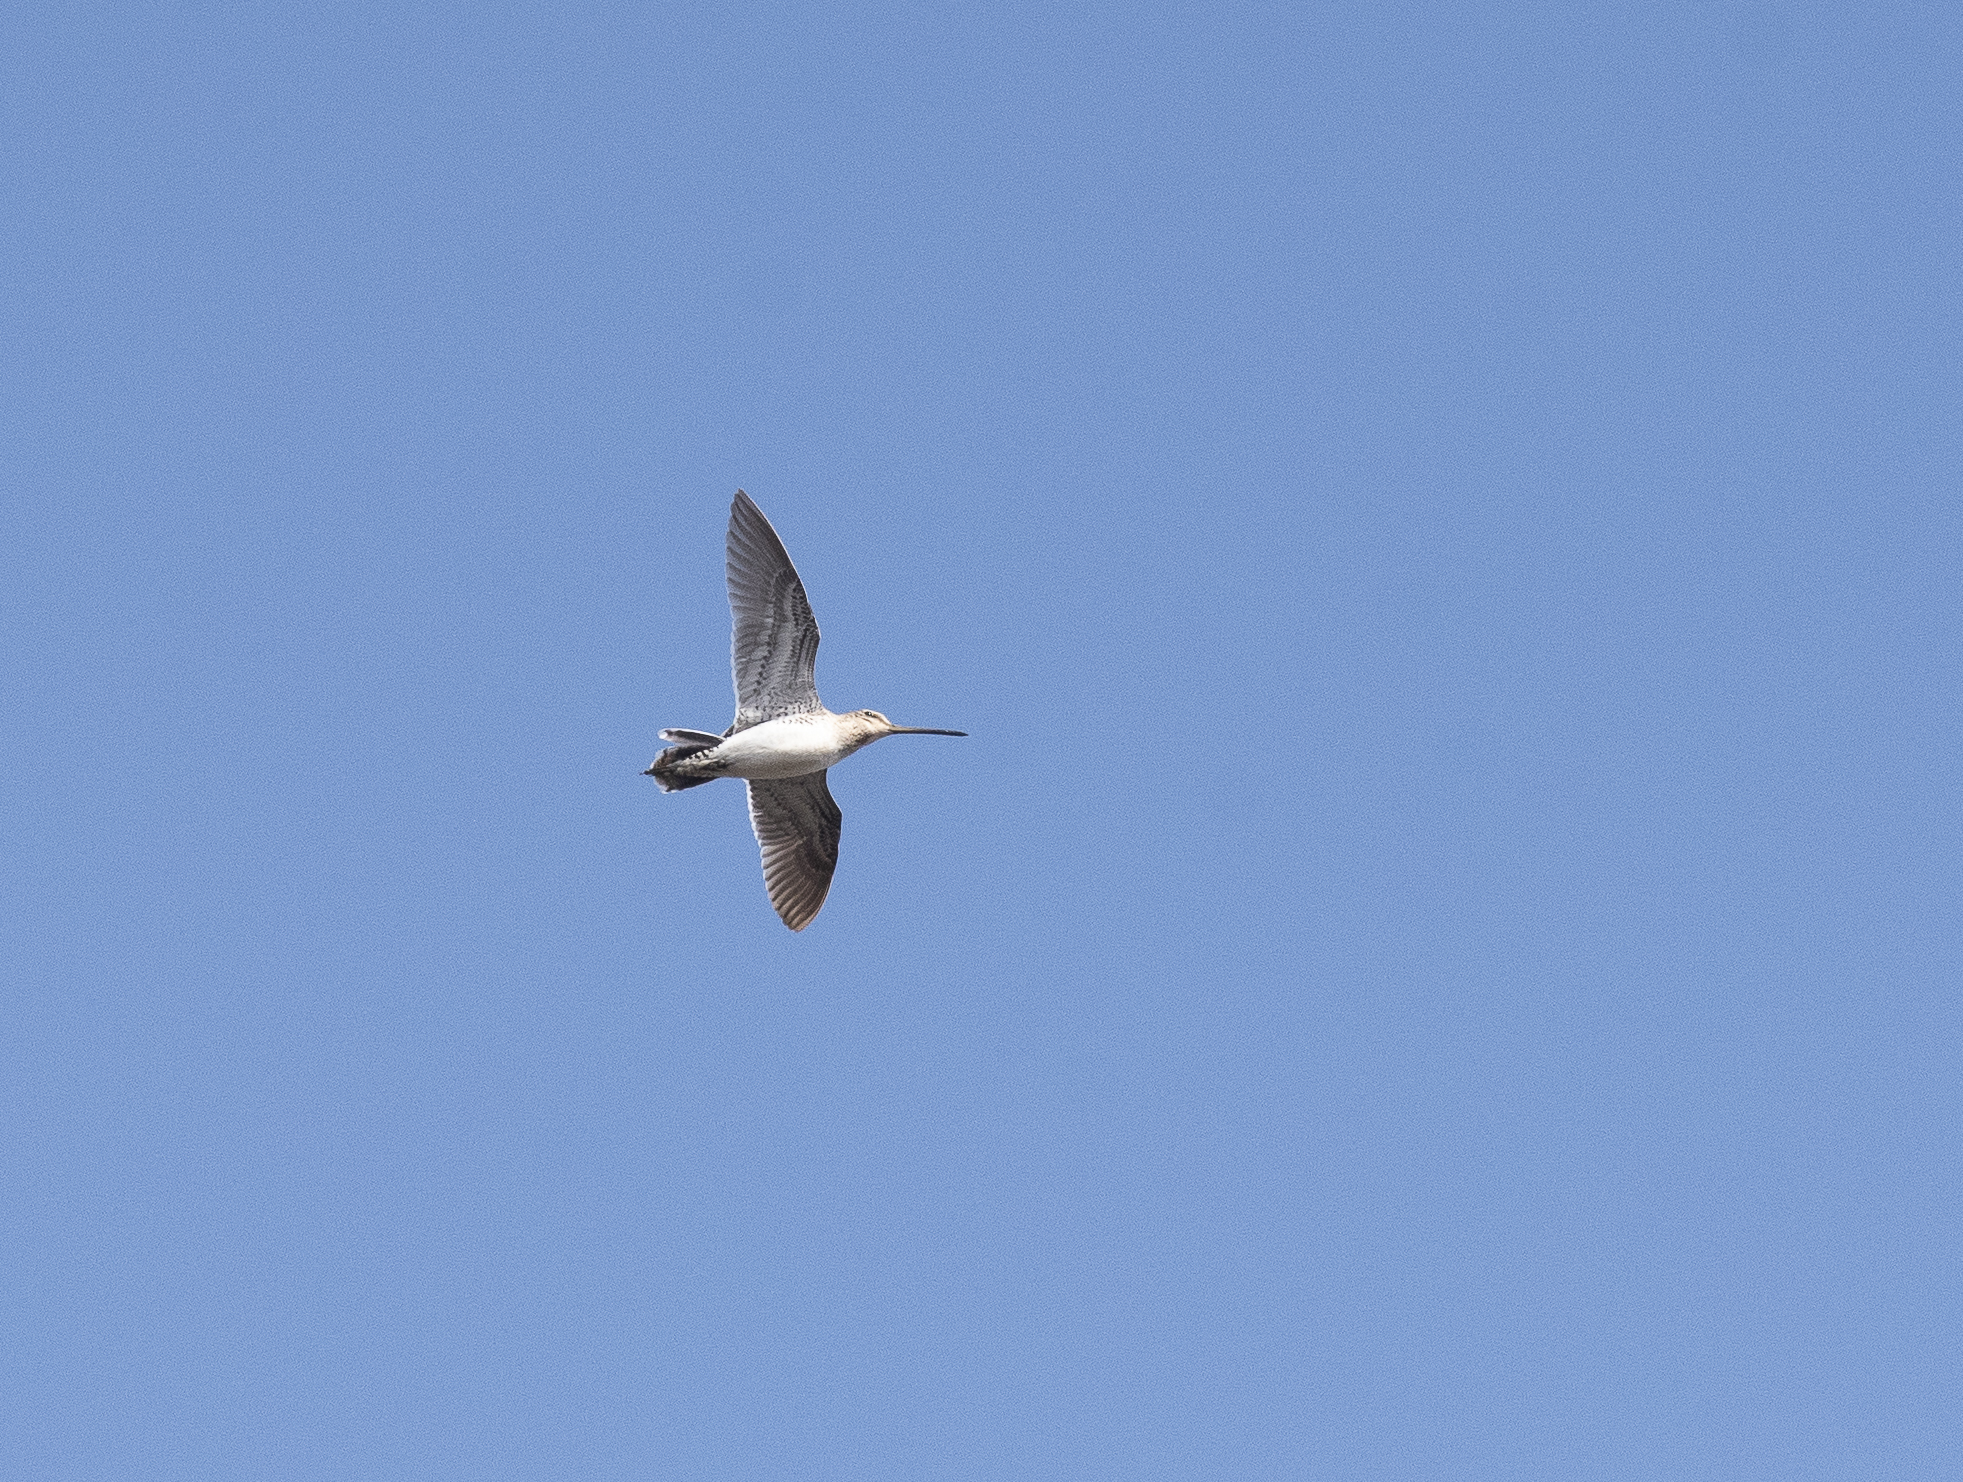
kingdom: Animalia
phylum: Chordata
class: Aves
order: Charadriiformes
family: Scolopacidae
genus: Gallinago
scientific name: Gallinago gallinago
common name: Common snipe
